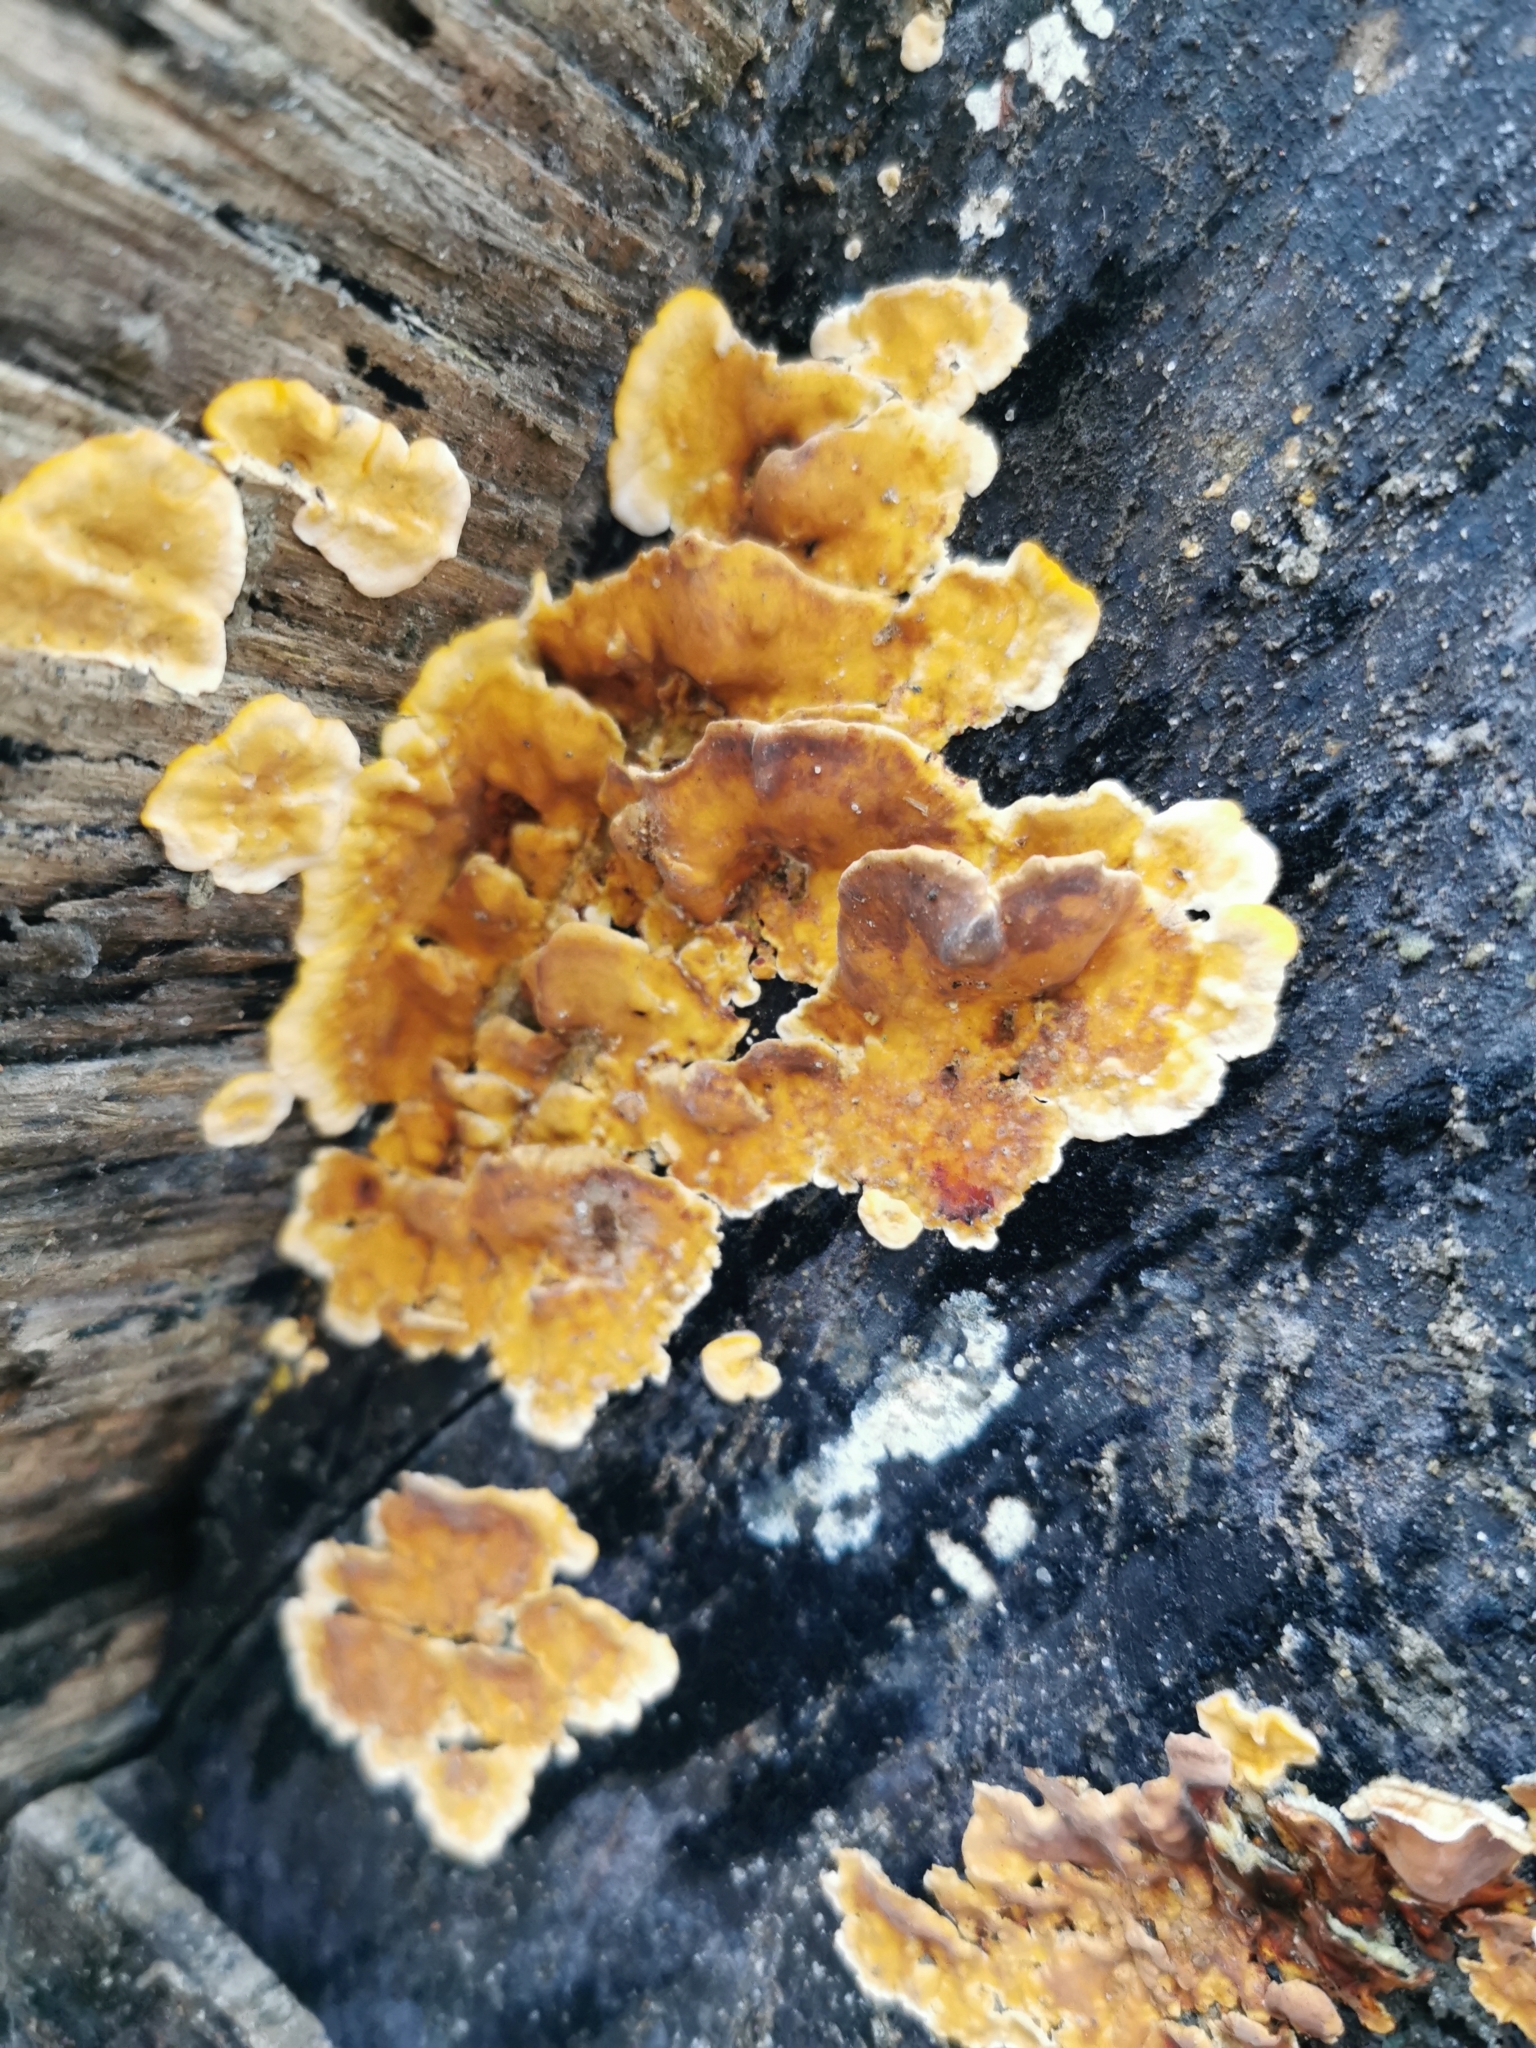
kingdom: Fungi
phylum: Basidiomycota
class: Agaricomycetes
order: Russulales
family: Stereaceae
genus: Stereum
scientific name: Stereum hirsutum
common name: Hairy curtain crust
